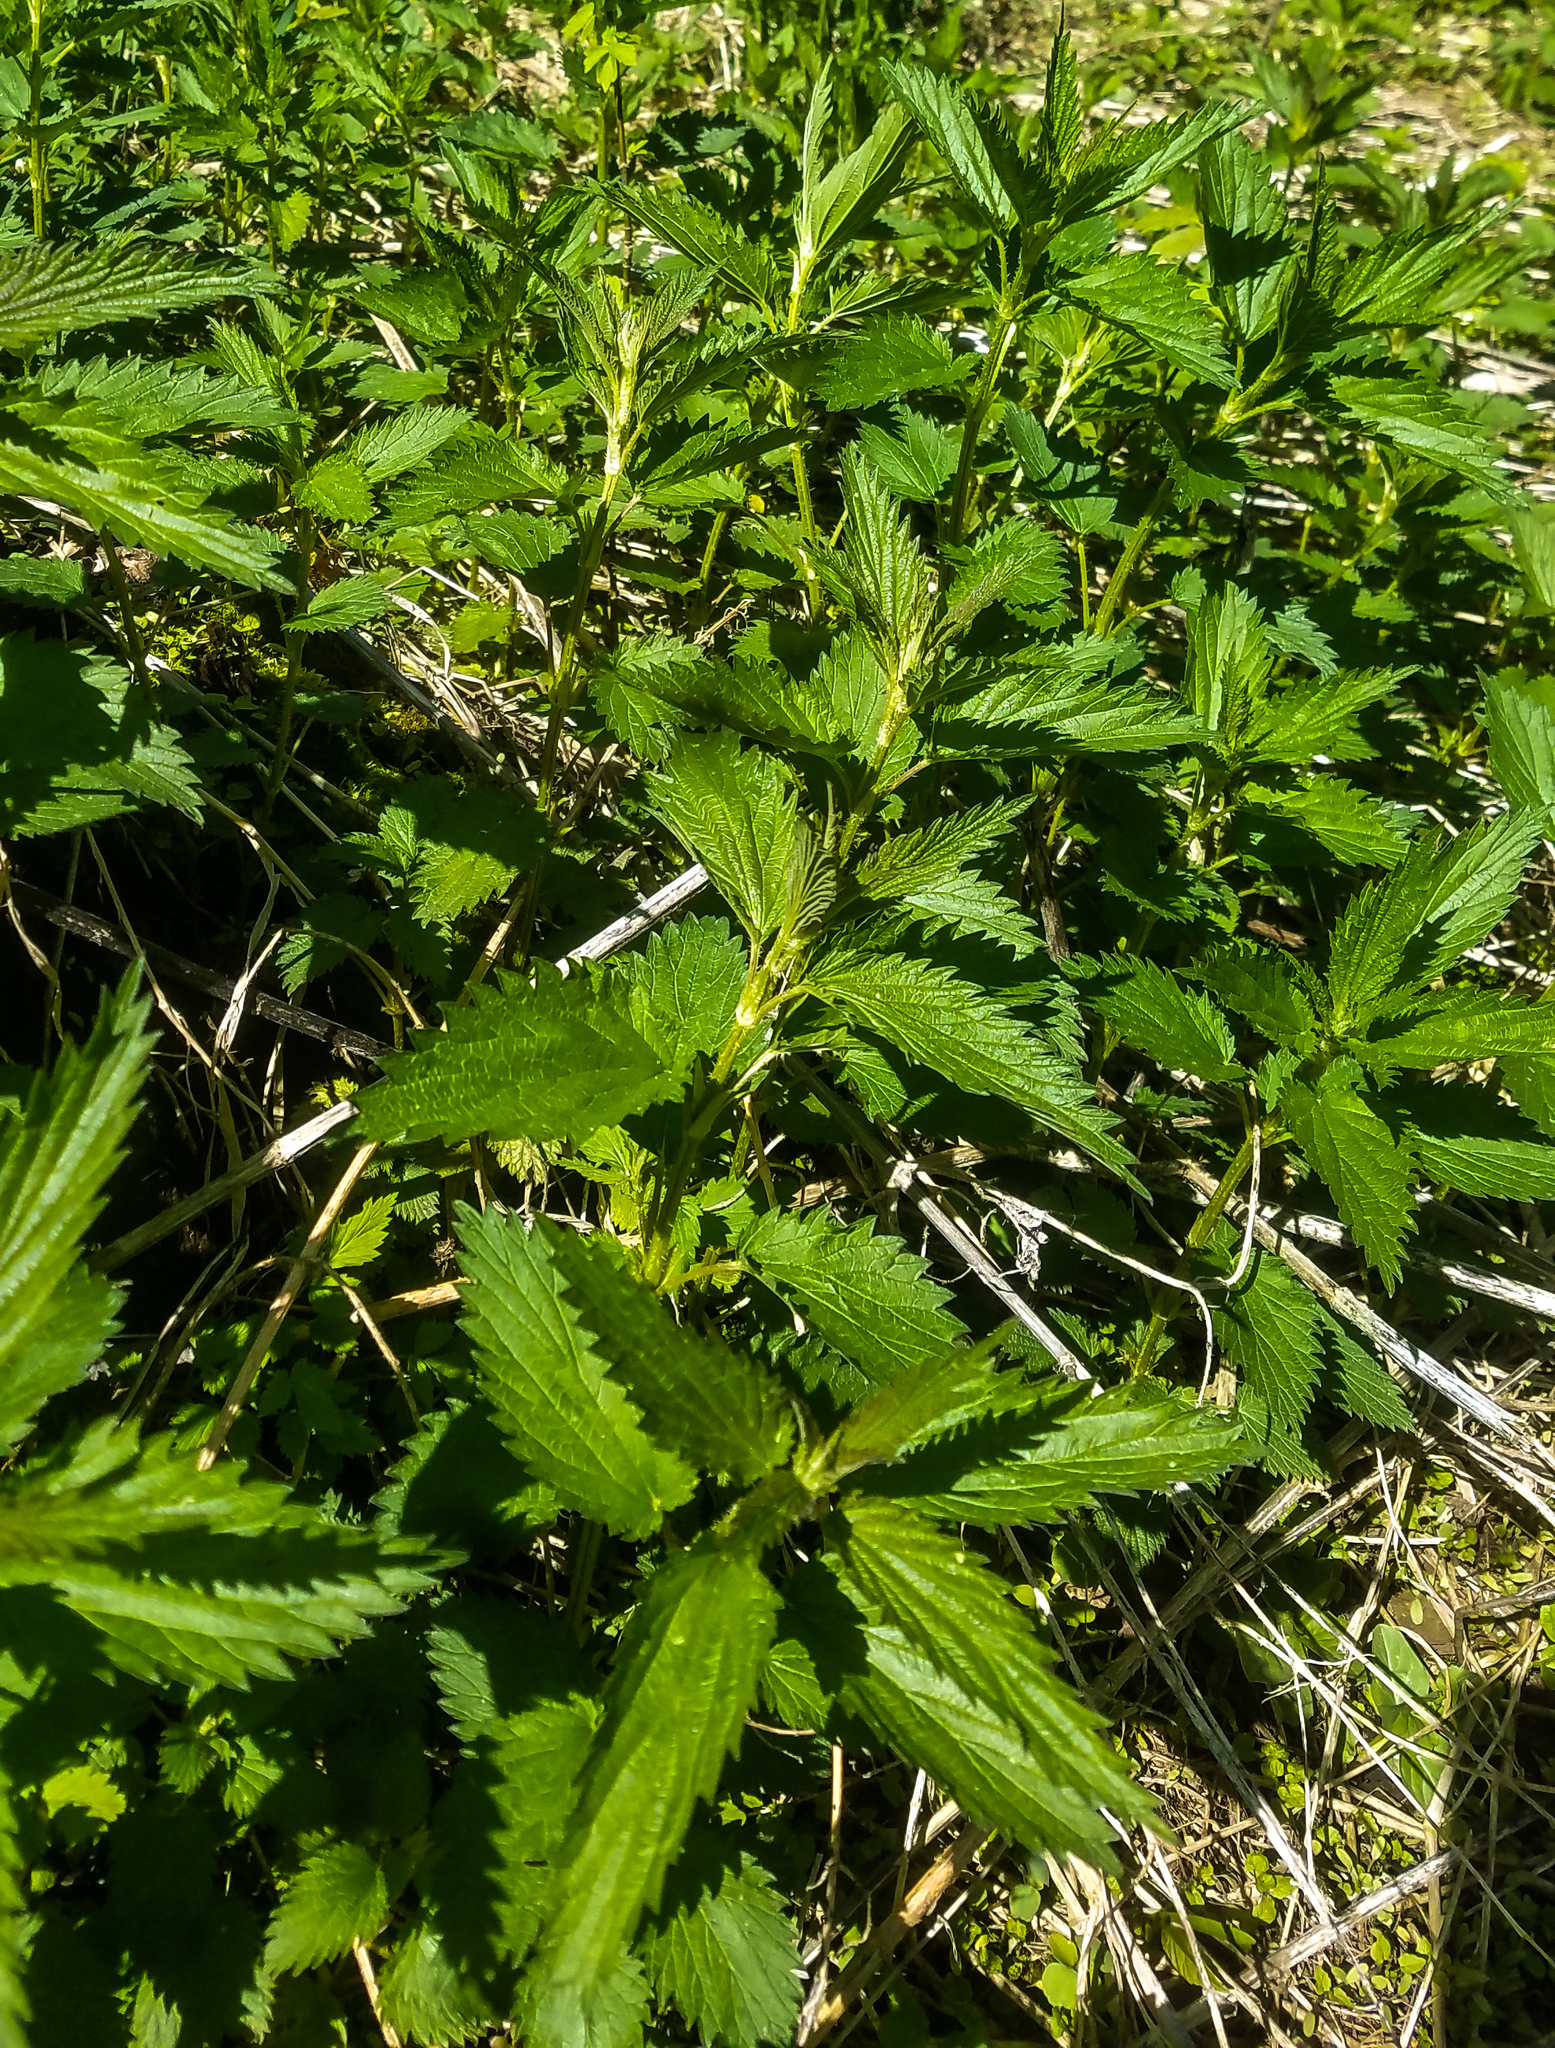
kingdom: Plantae
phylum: Tracheophyta
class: Magnoliopsida
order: Rosales
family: Urticaceae
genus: Urtica
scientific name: Urtica dioica
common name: Common nettle
